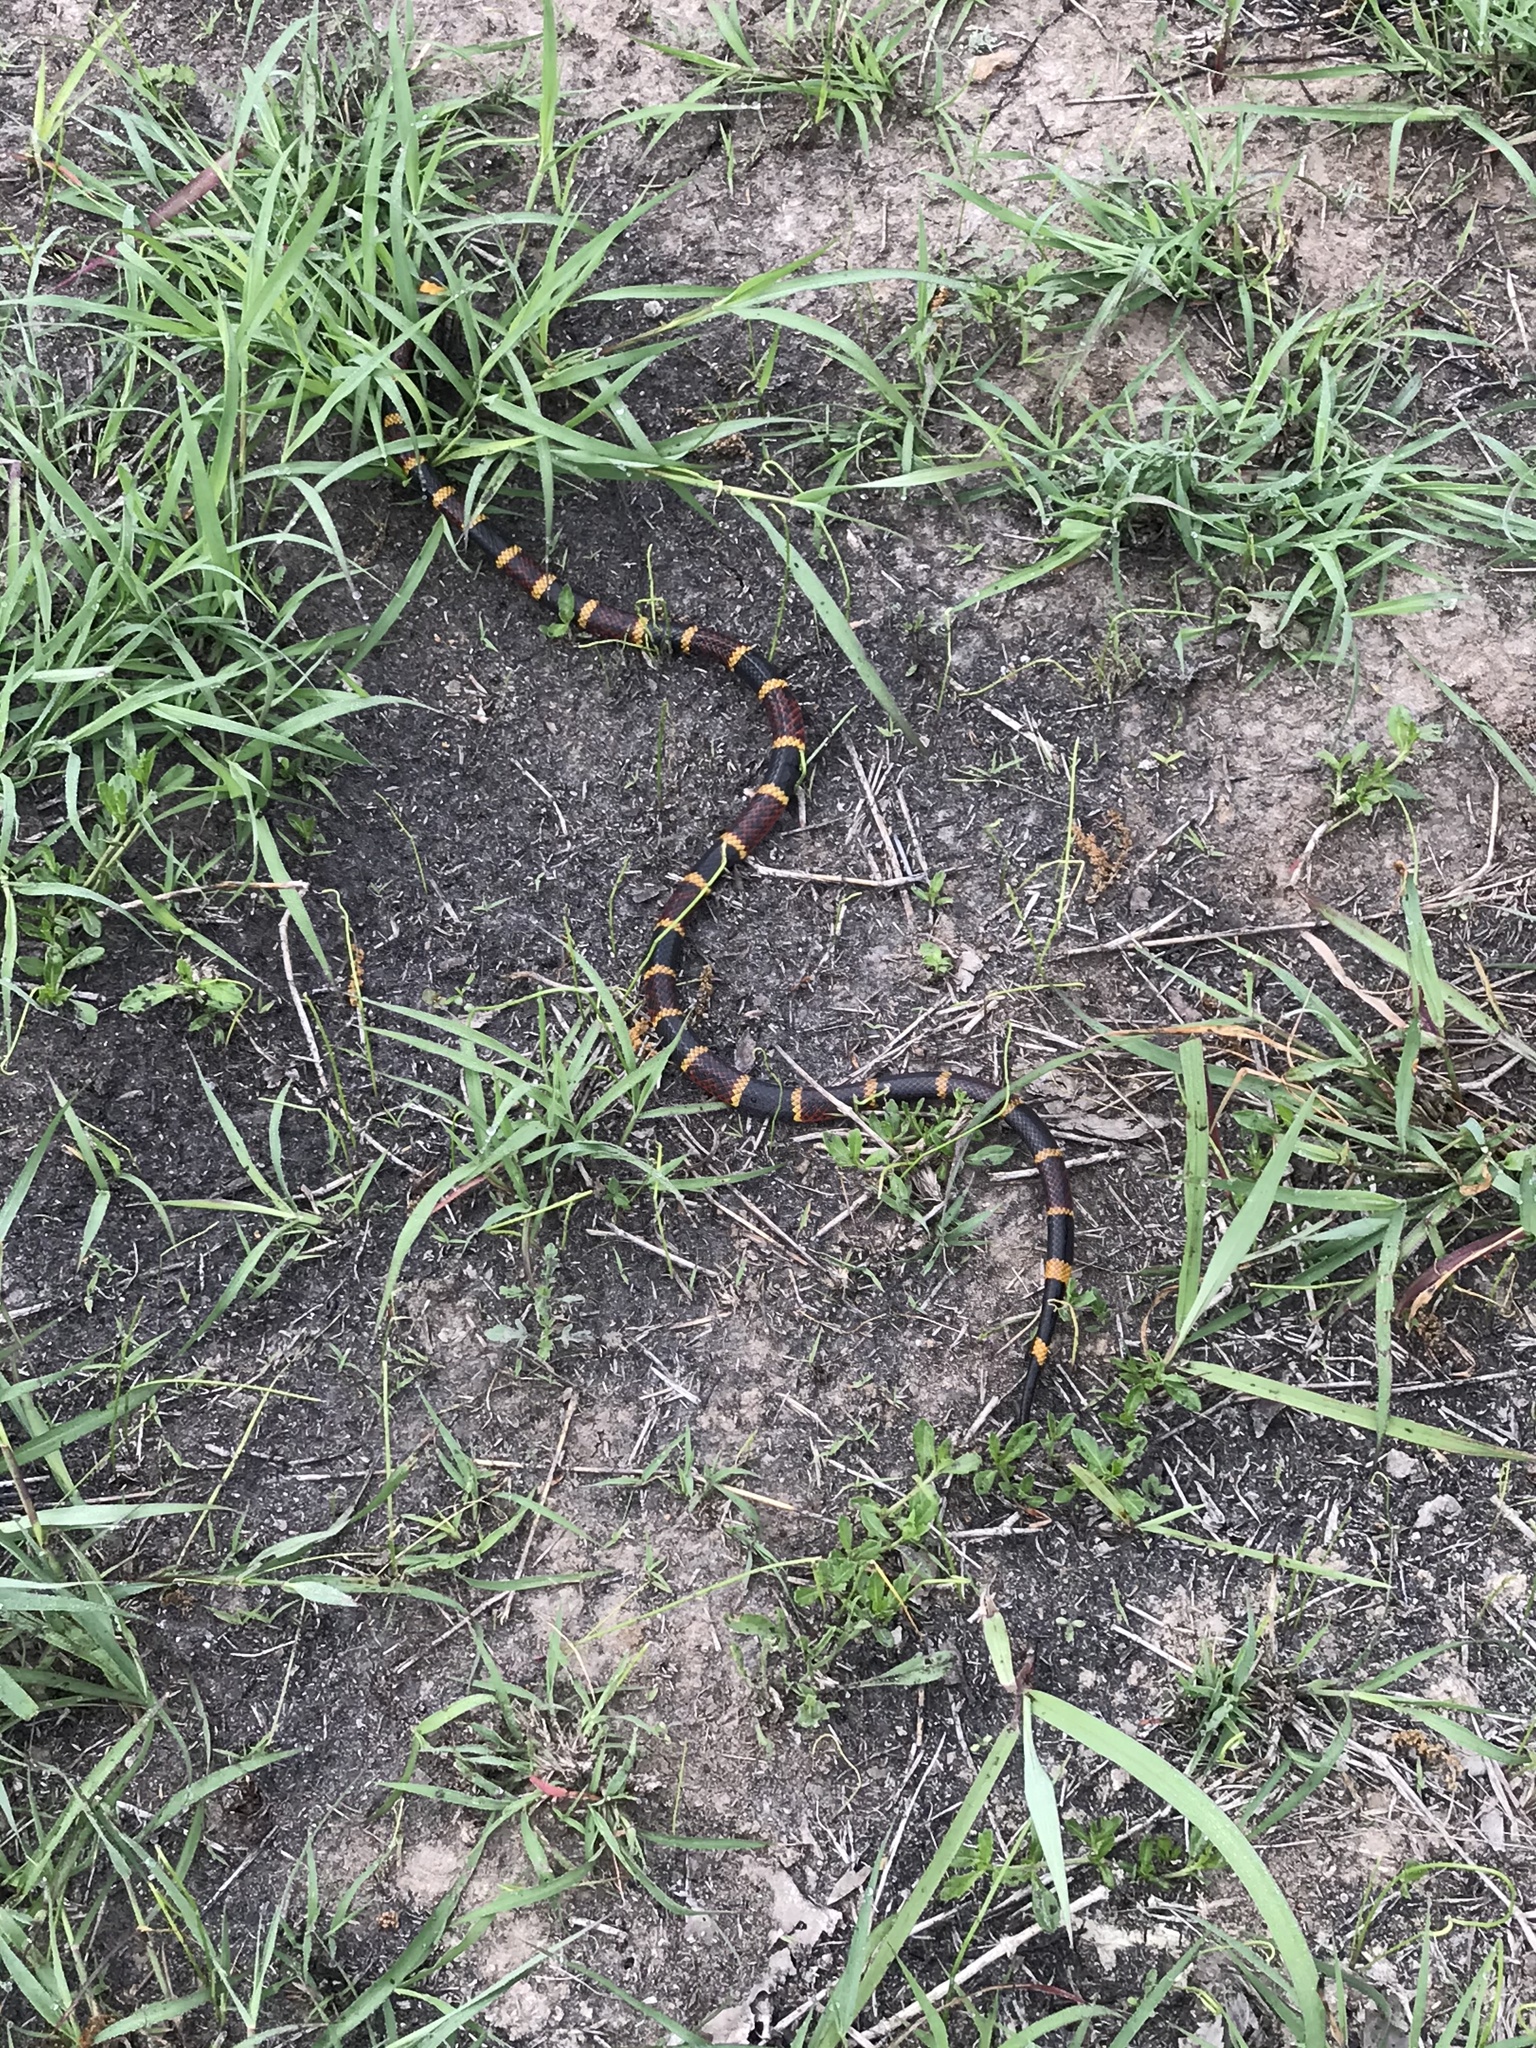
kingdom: Animalia
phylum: Chordata
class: Squamata
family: Elapidae
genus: Micrurus
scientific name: Micrurus tener
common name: Texas coral snake
